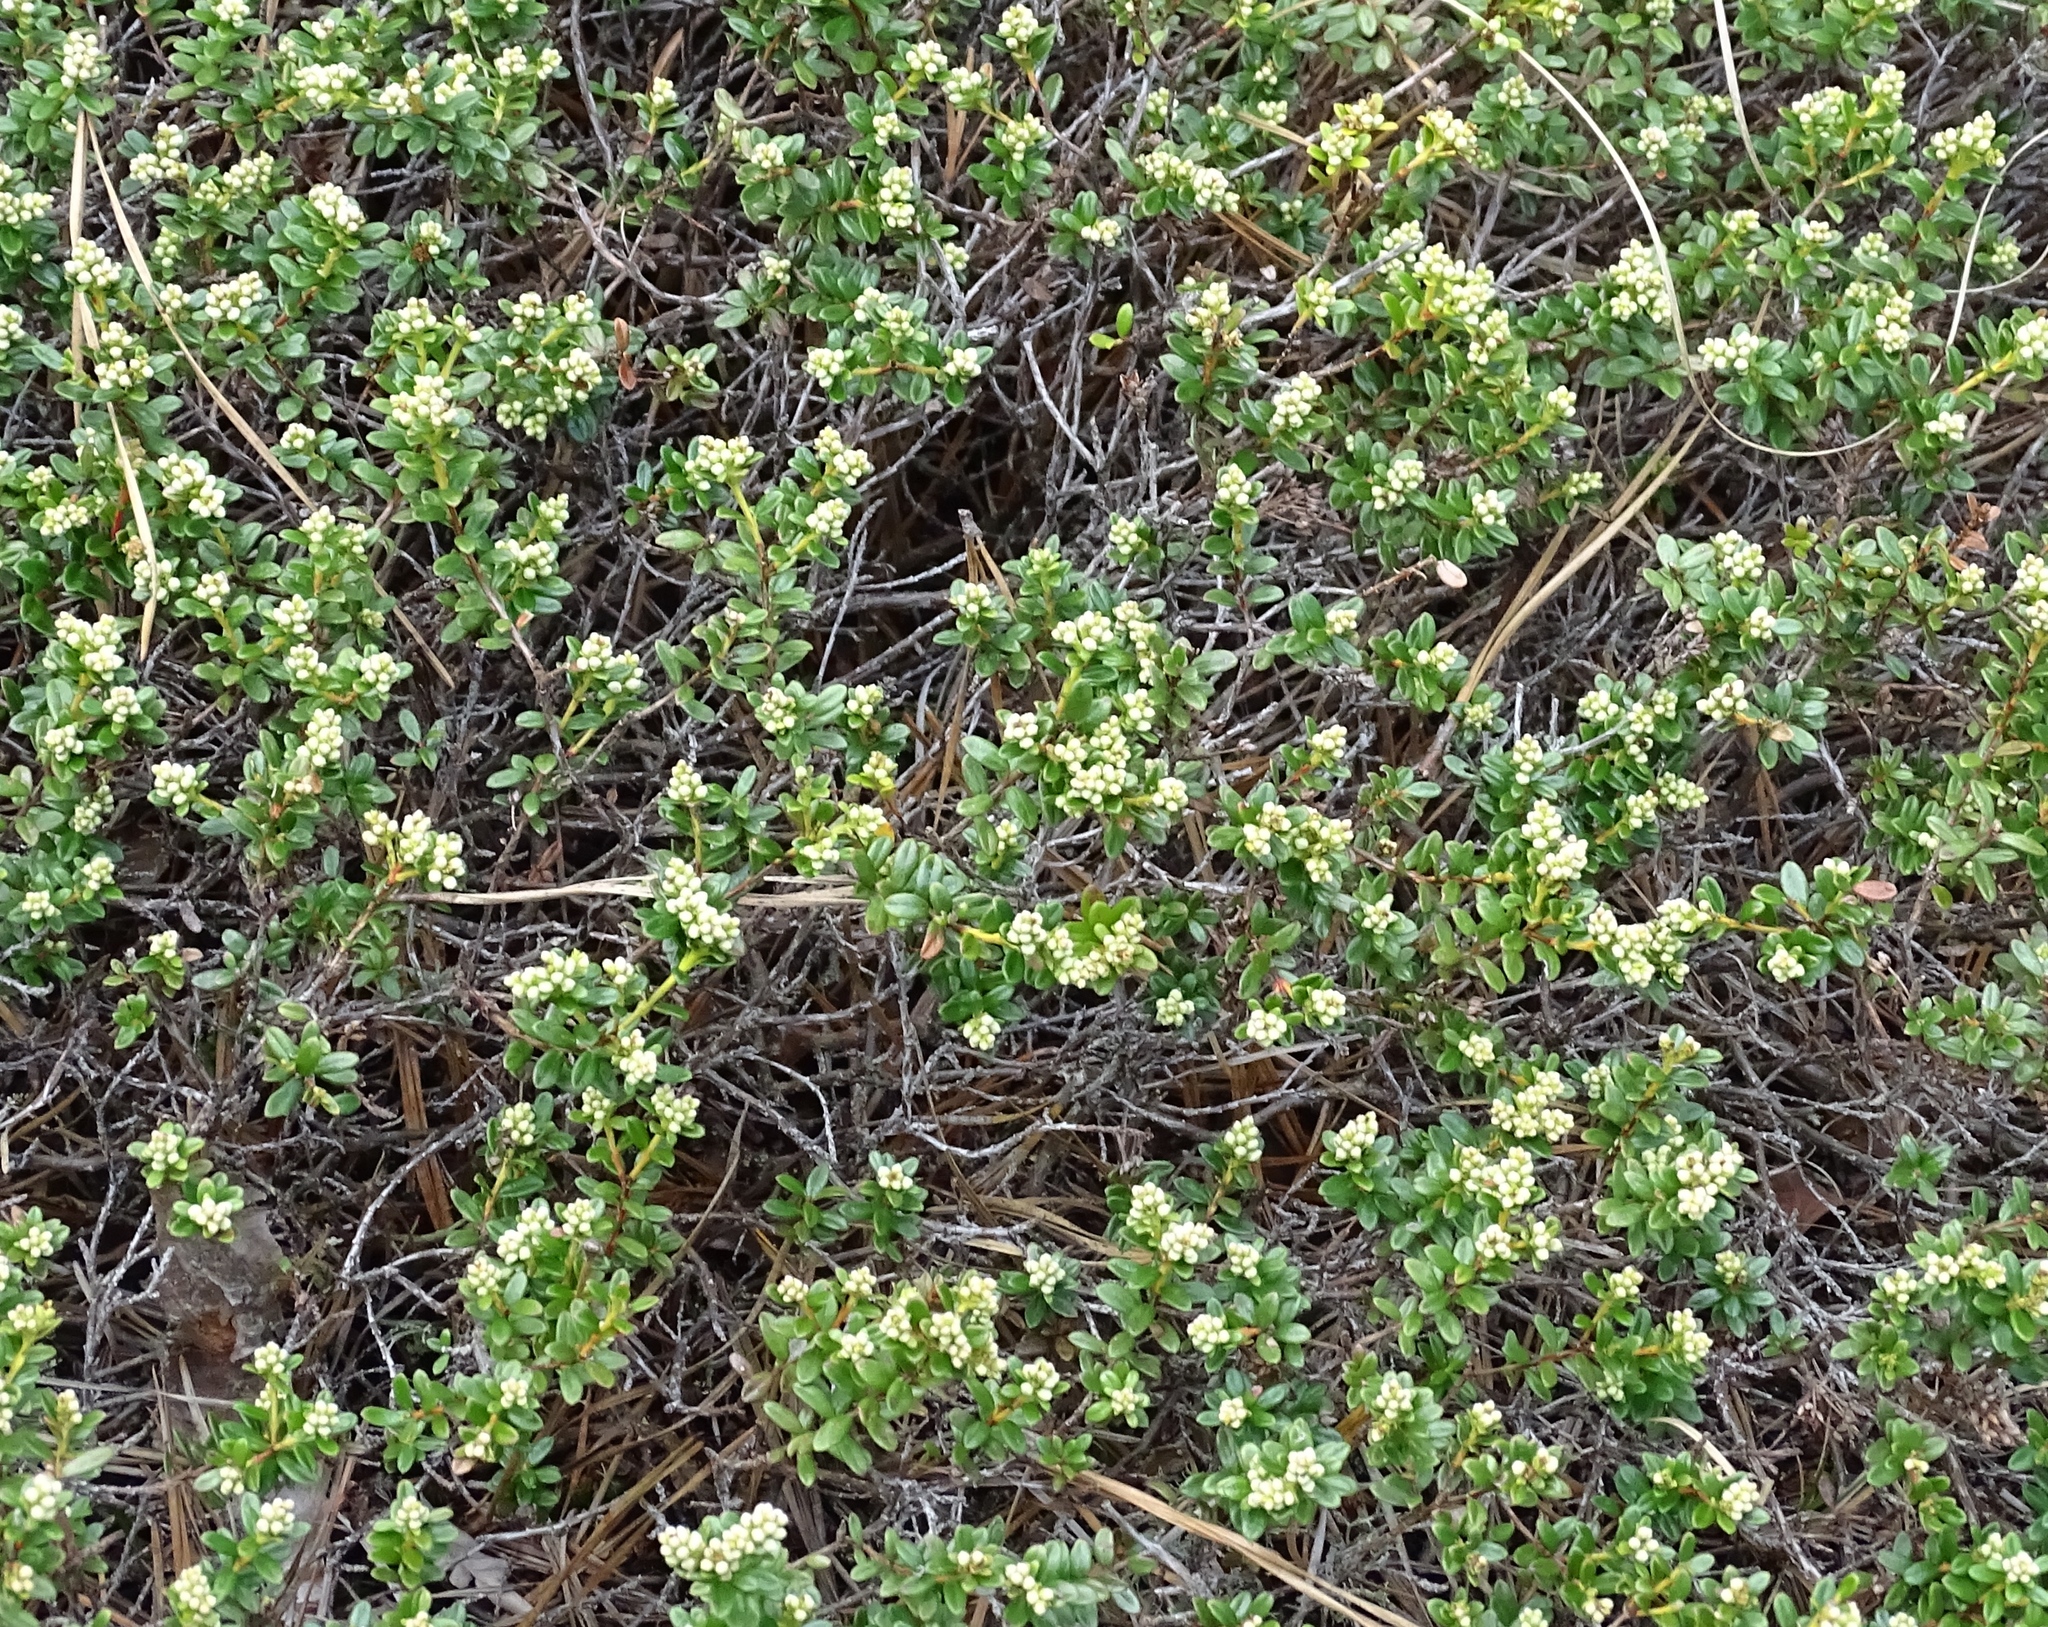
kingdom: Plantae
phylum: Tracheophyta
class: Magnoliopsida
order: Ericales
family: Ericaceae
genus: Kalmia
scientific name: Kalmia buxifolia
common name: Sandmyrtle
